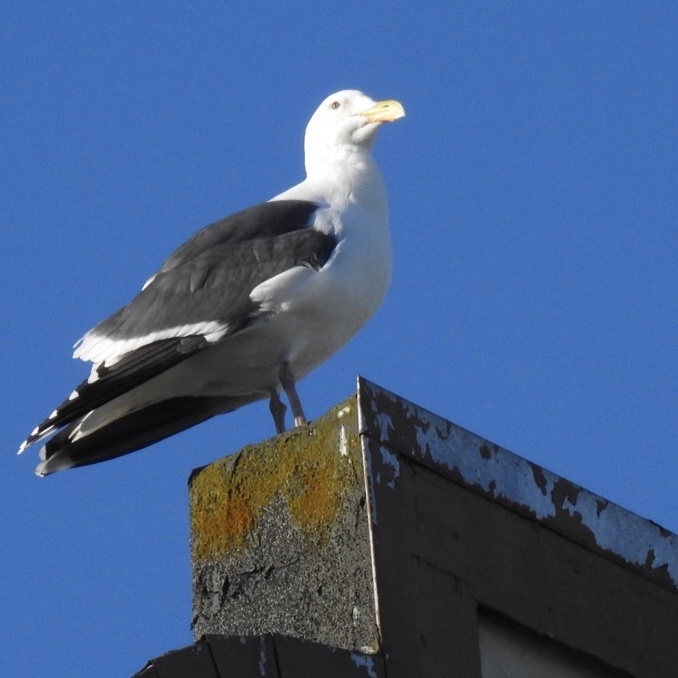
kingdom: Animalia
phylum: Chordata
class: Aves
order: Charadriiformes
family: Laridae
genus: Larus
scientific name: Larus occidentalis
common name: Western gull
